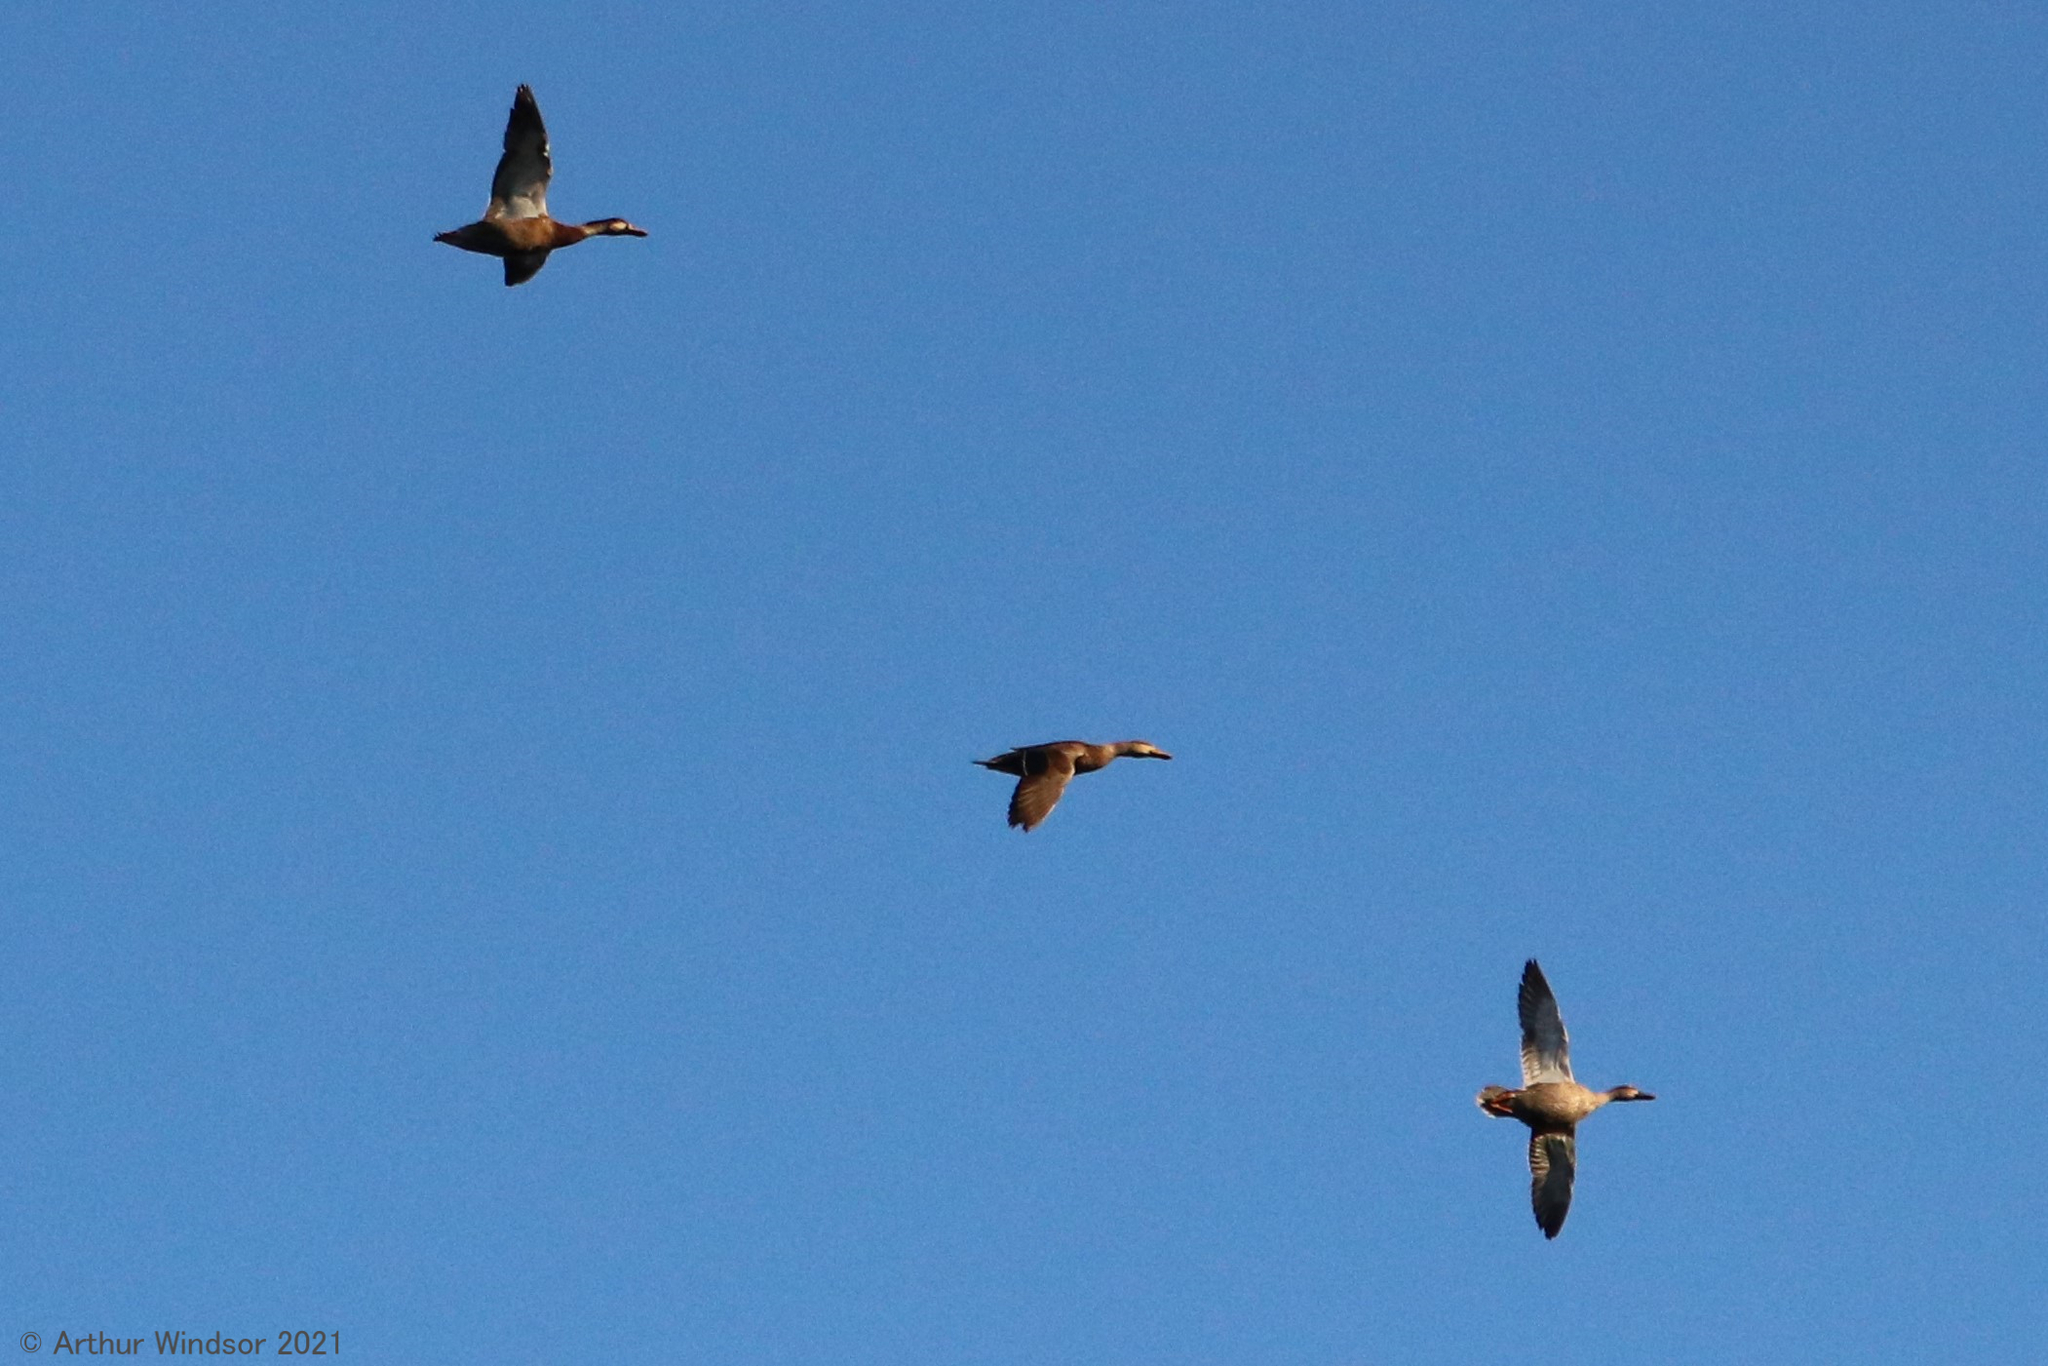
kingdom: Animalia
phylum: Chordata
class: Aves
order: Anseriformes
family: Anatidae
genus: Anas
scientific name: Anas
